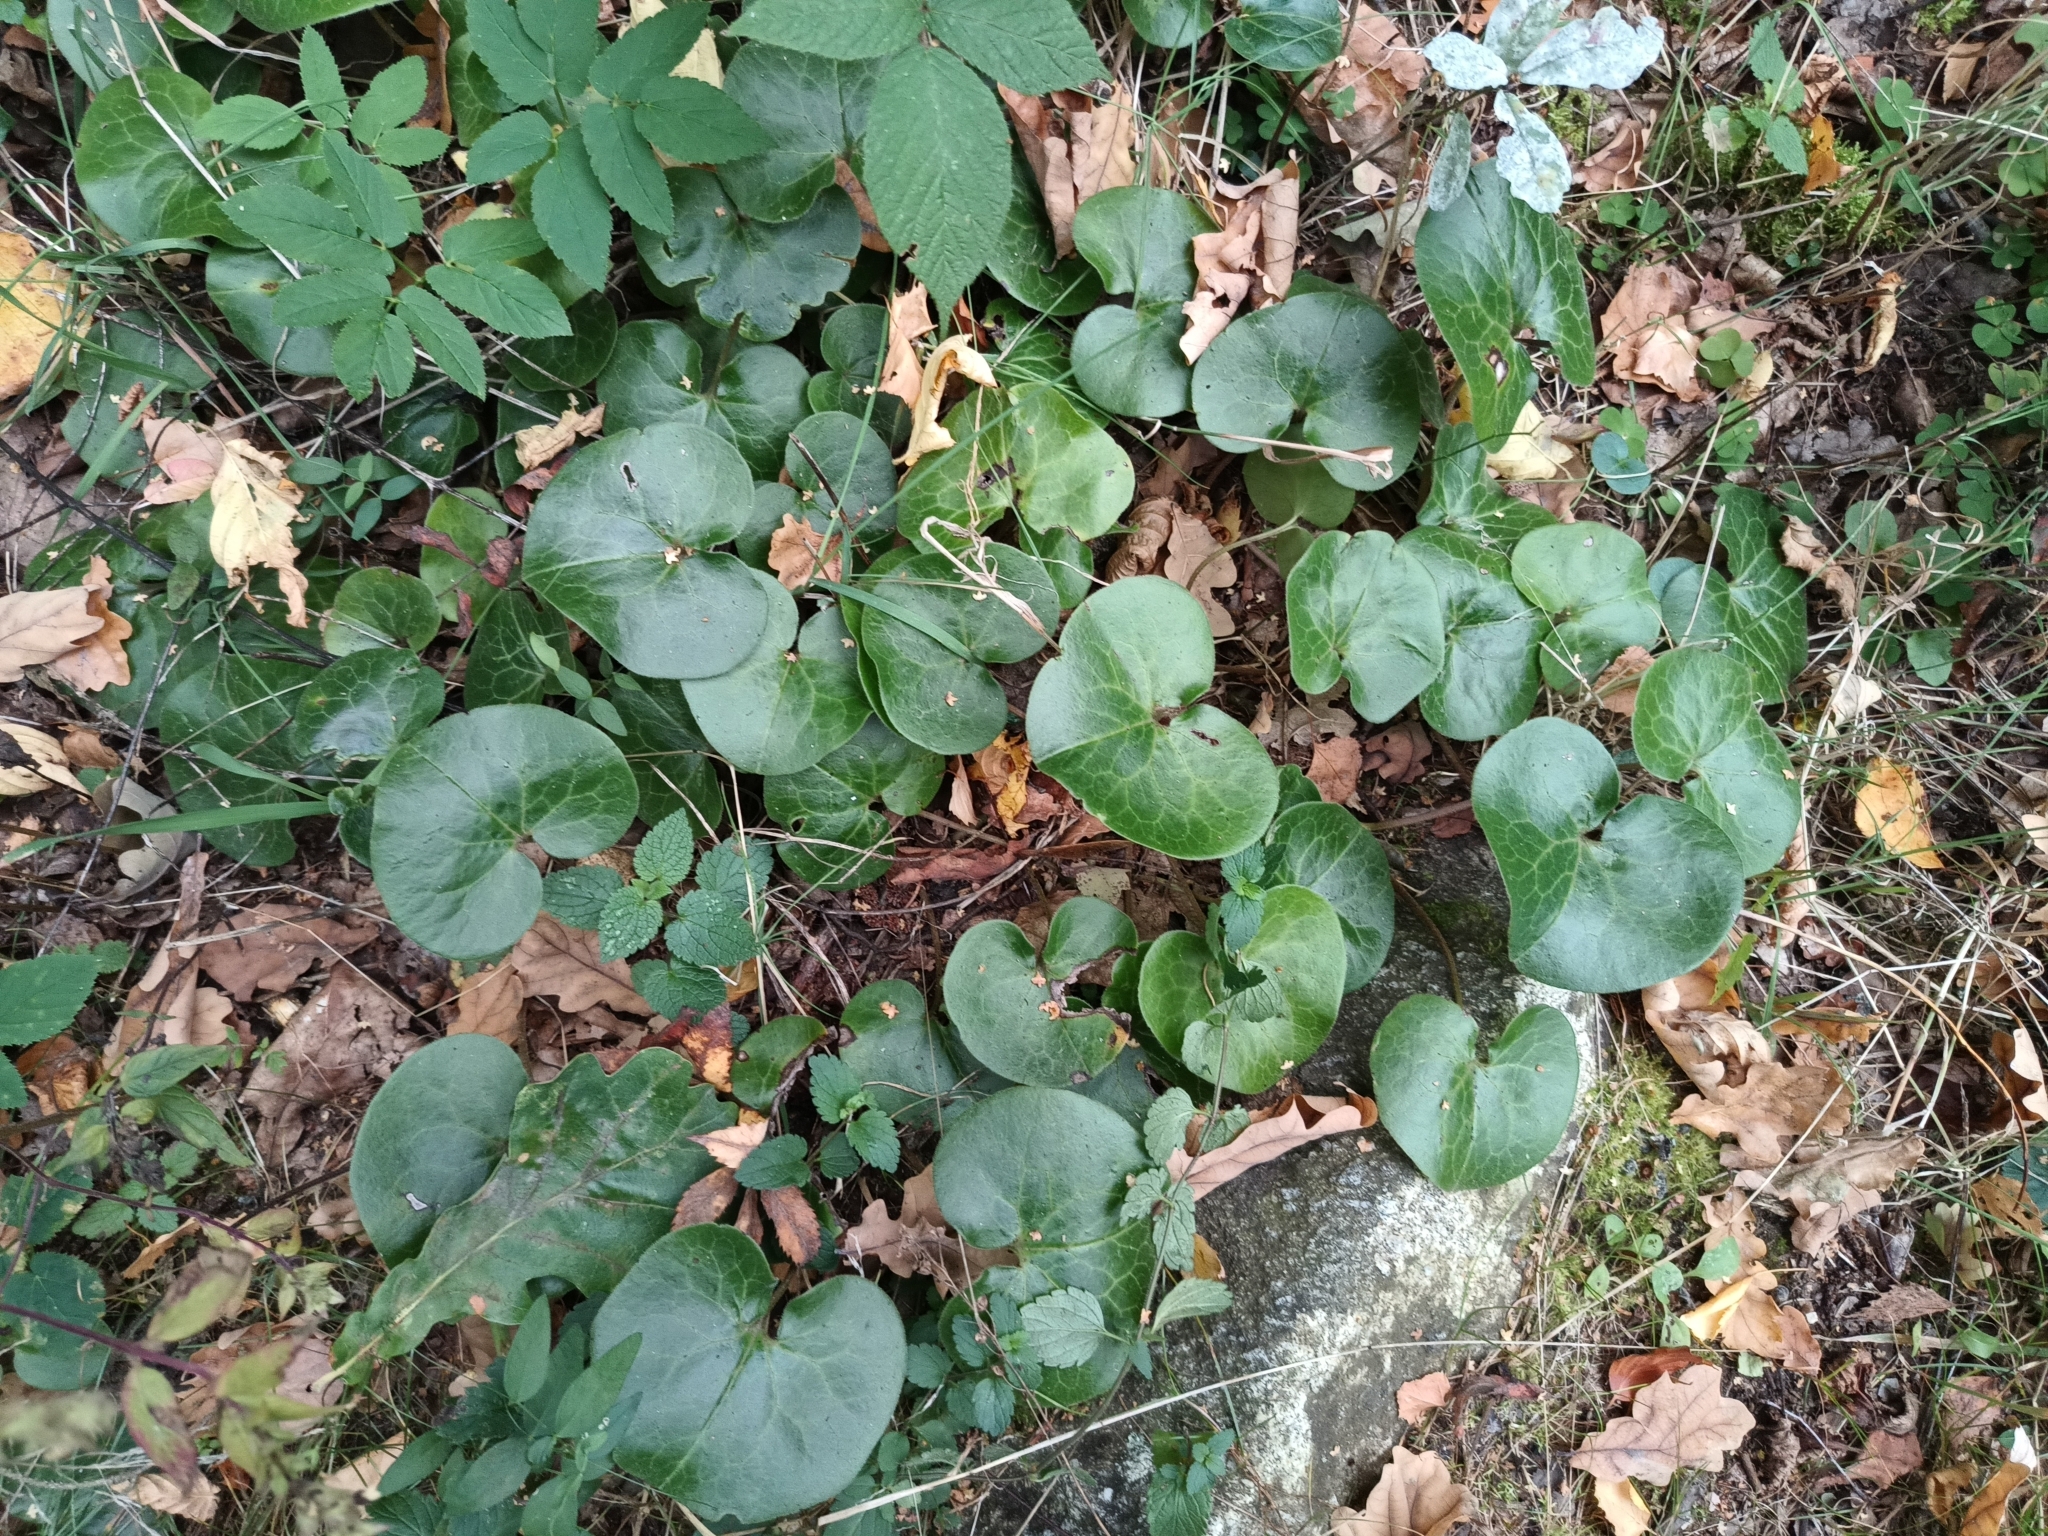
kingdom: Plantae
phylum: Tracheophyta
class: Magnoliopsida
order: Piperales
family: Aristolochiaceae
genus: Asarum
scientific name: Asarum europaeum
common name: Asarabacca
